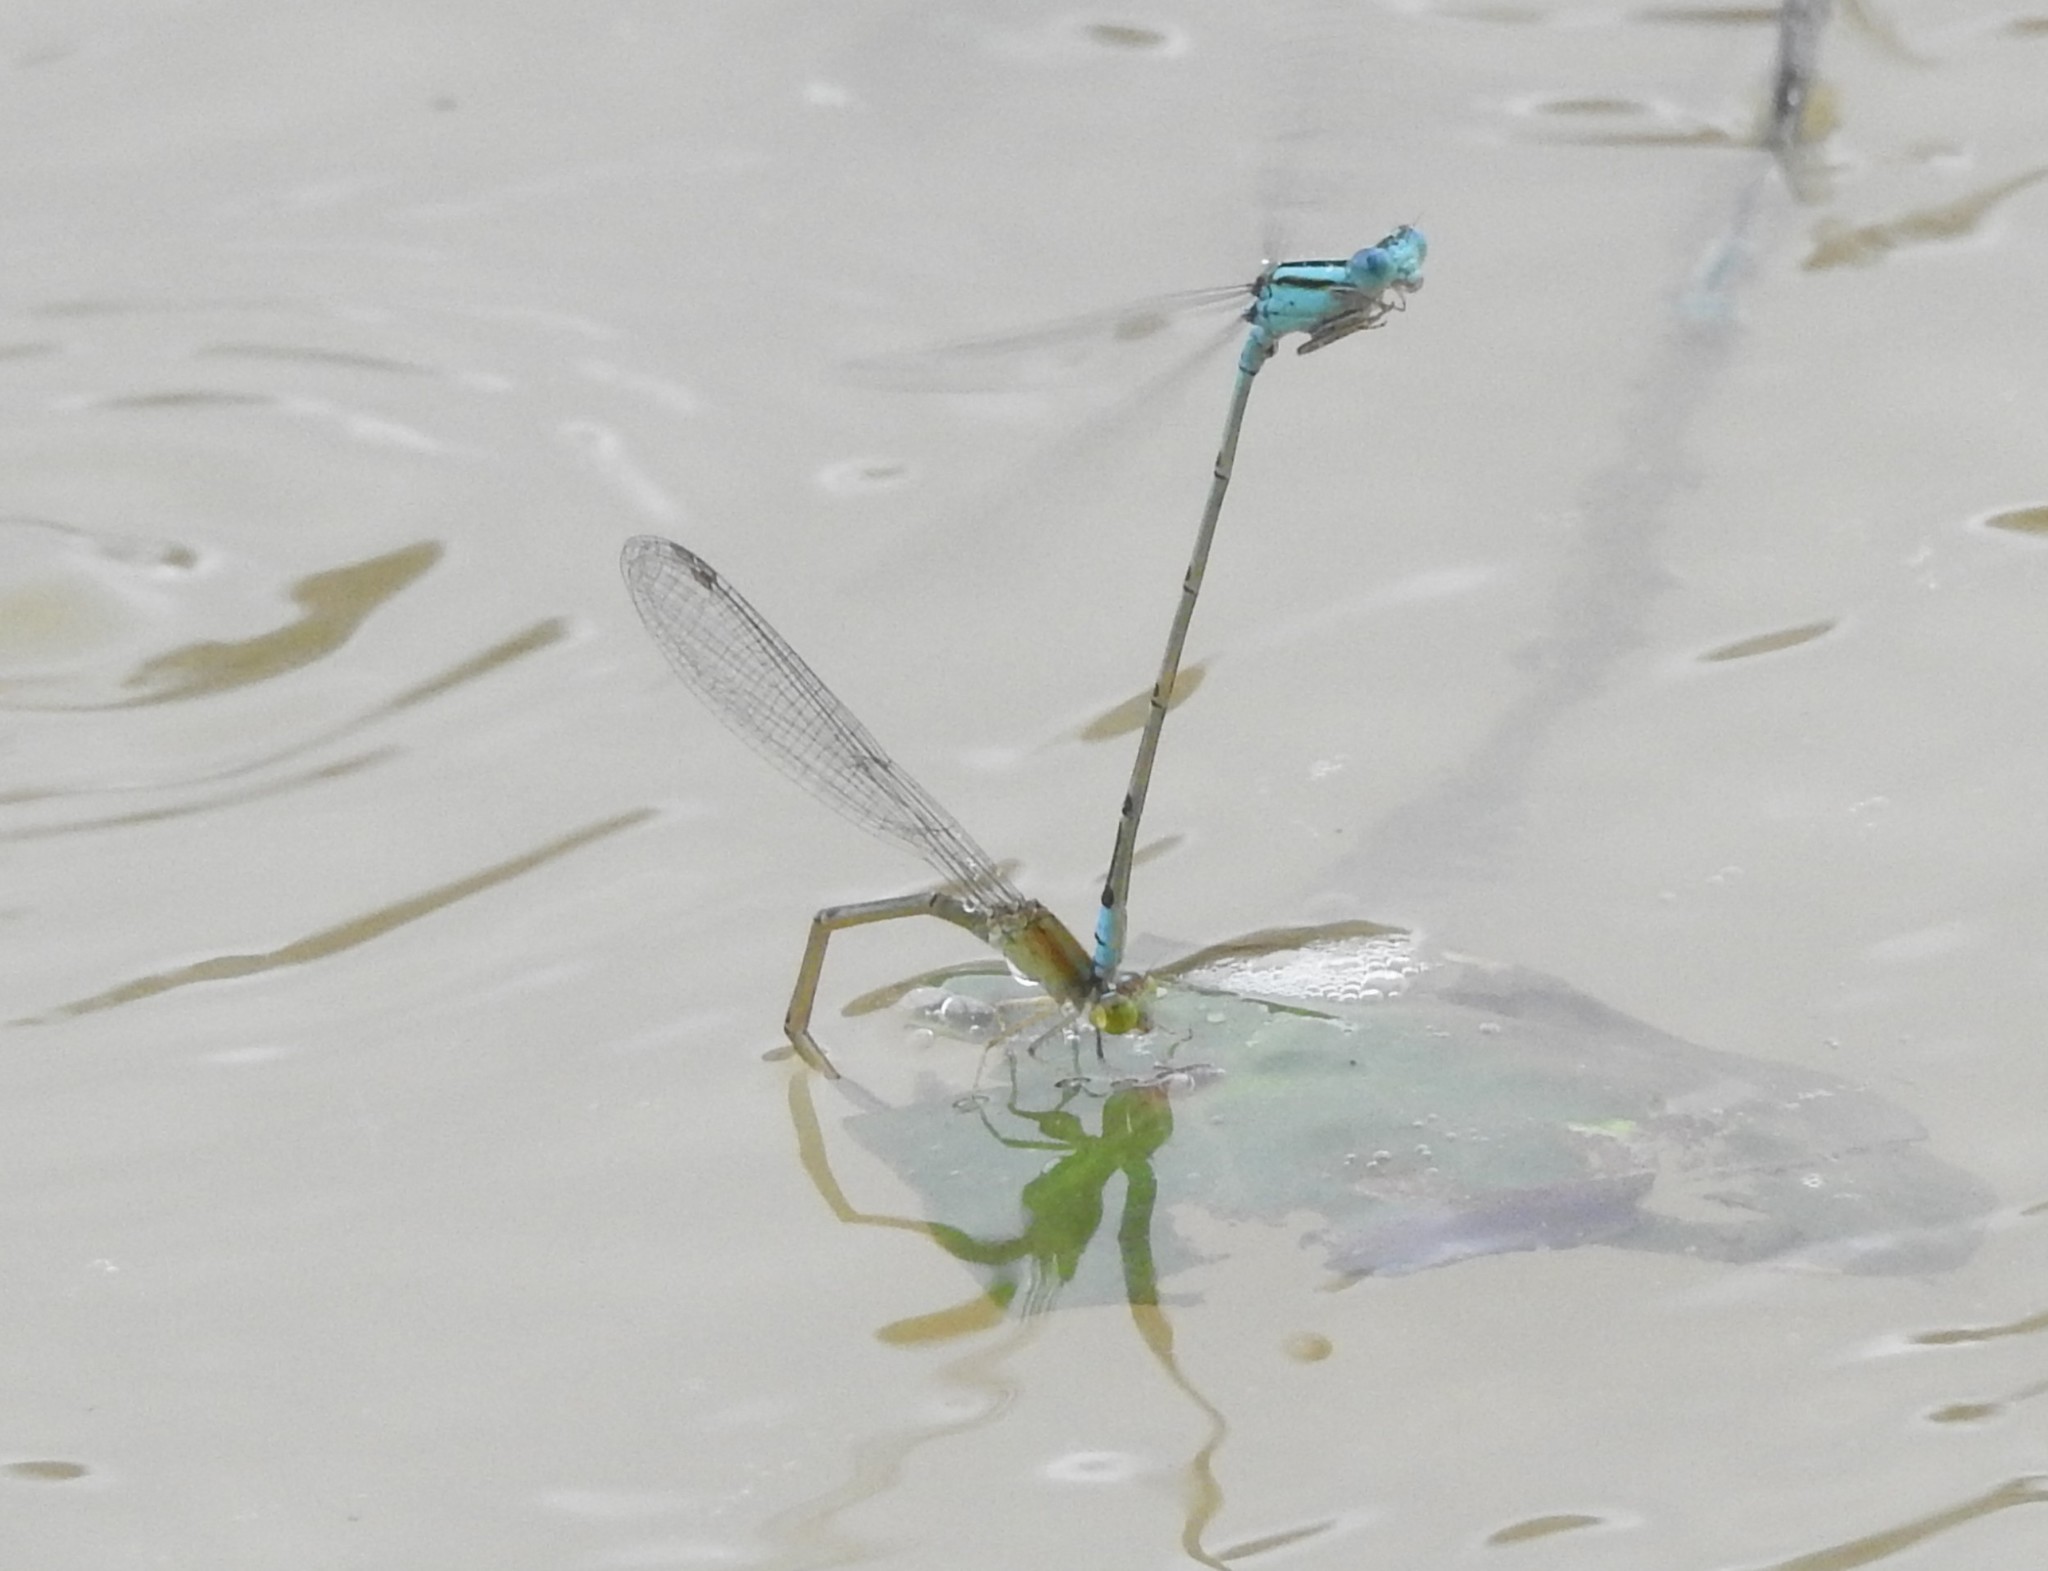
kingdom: Animalia
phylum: Arthropoda
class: Insecta
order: Odonata
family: Coenagrionidae
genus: Pseudagrion
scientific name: Pseudagrion microcephalum
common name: Blue riverdamsel
